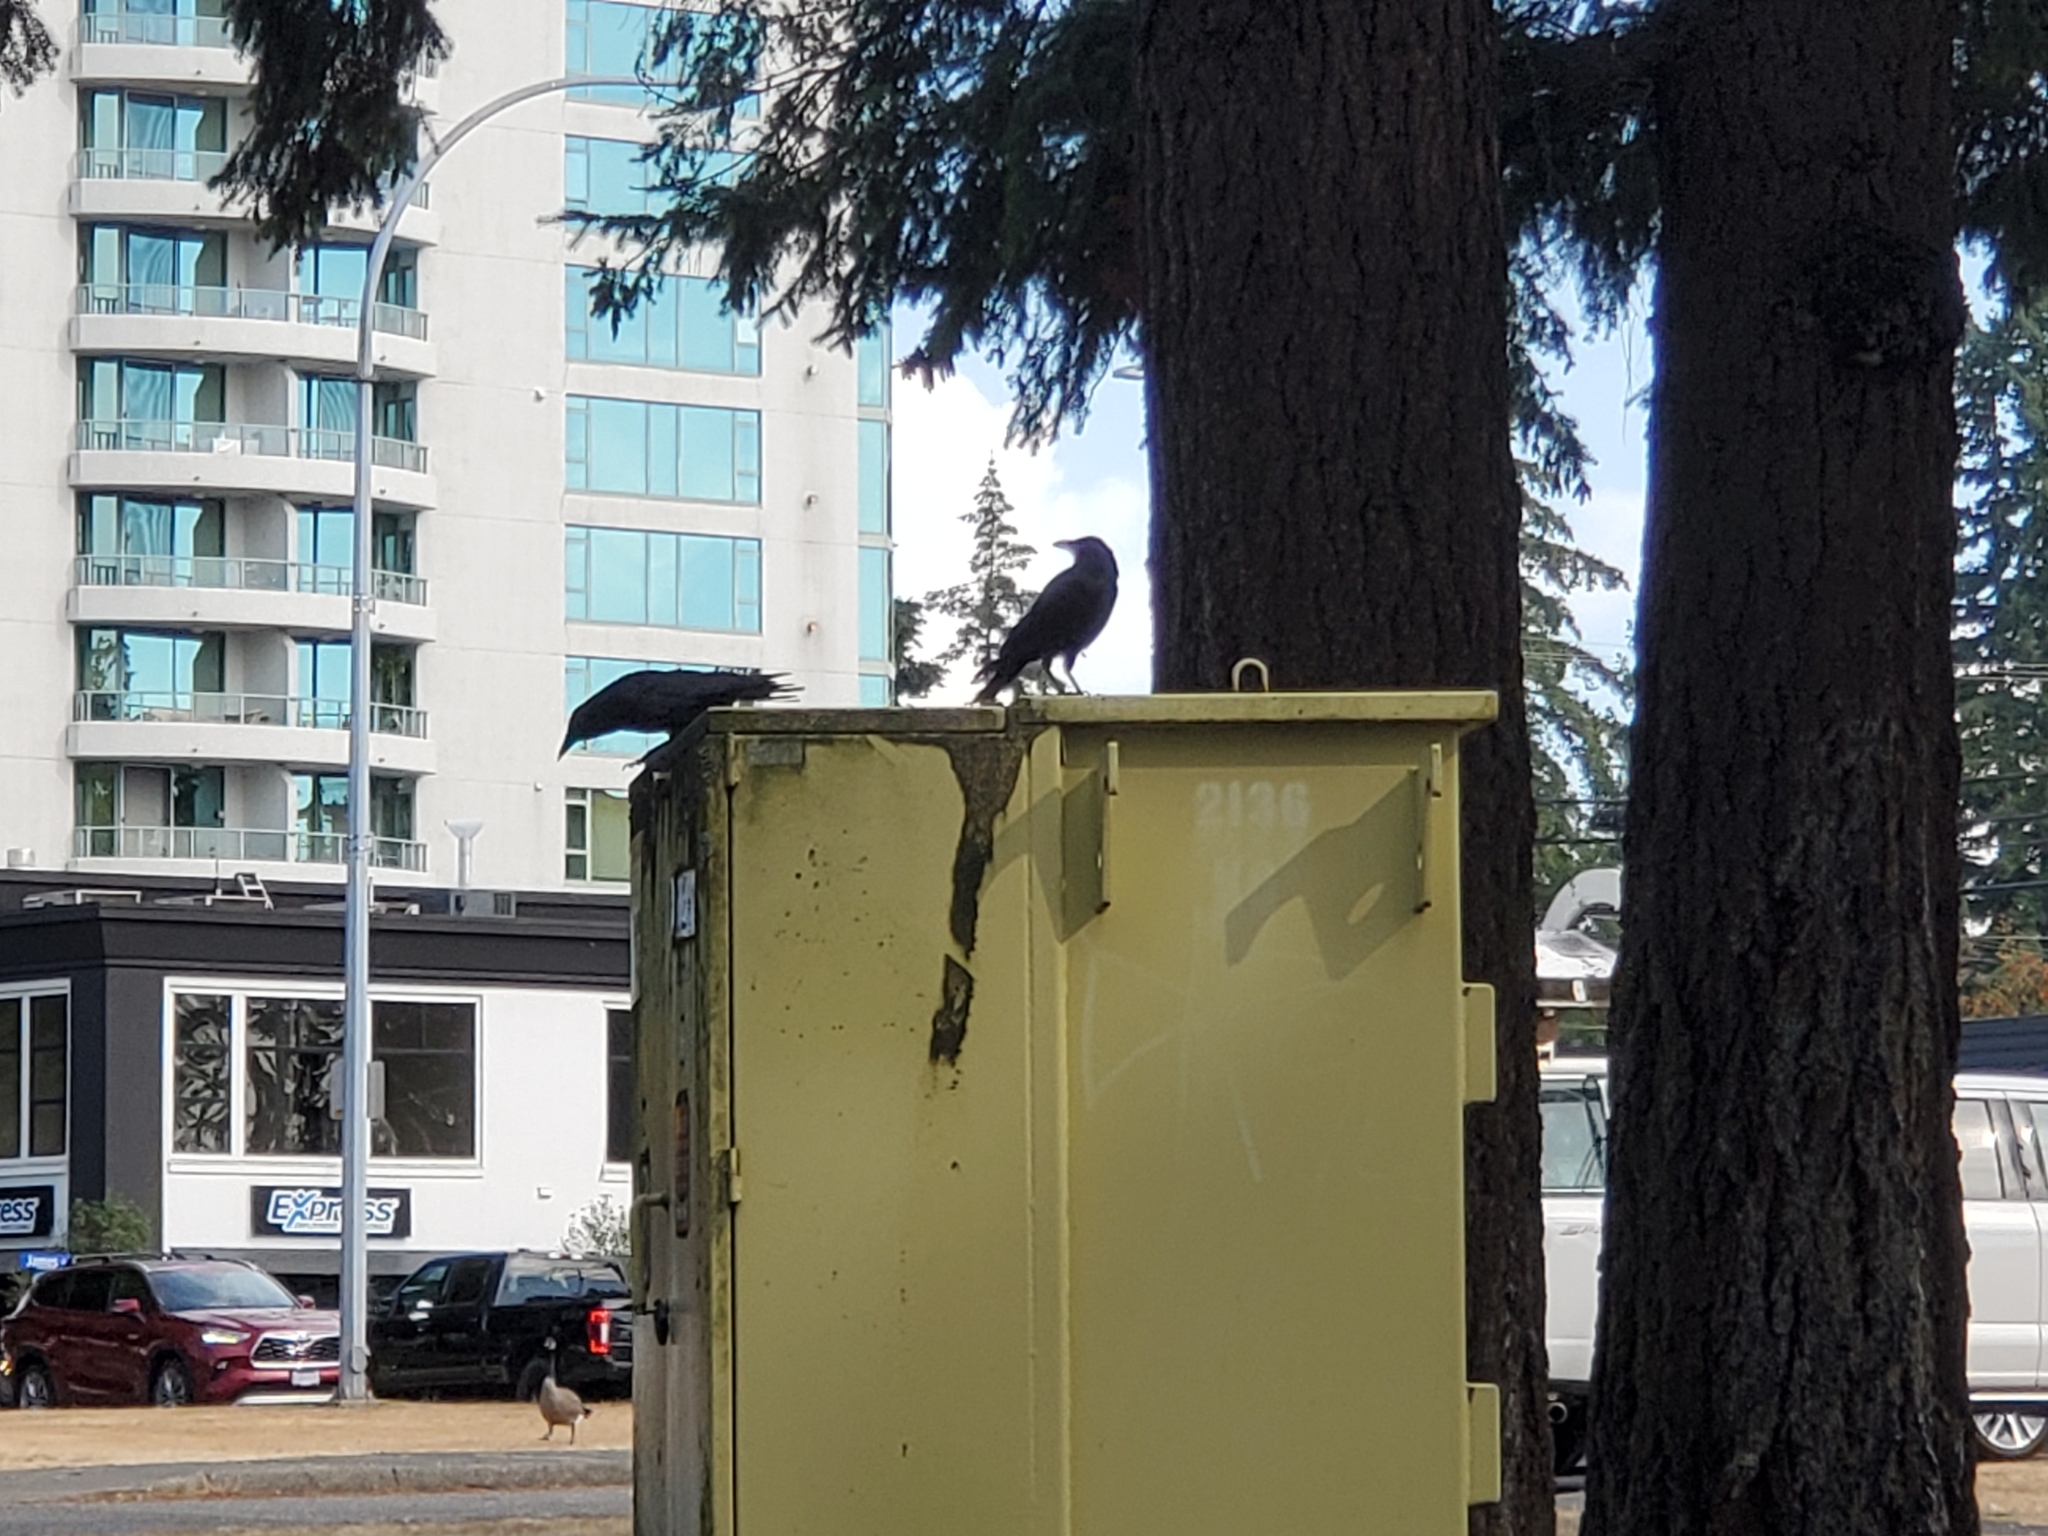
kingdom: Animalia
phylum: Chordata
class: Aves
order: Passeriformes
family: Corvidae
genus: Corvus
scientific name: Corvus brachyrhynchos
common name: American crow
